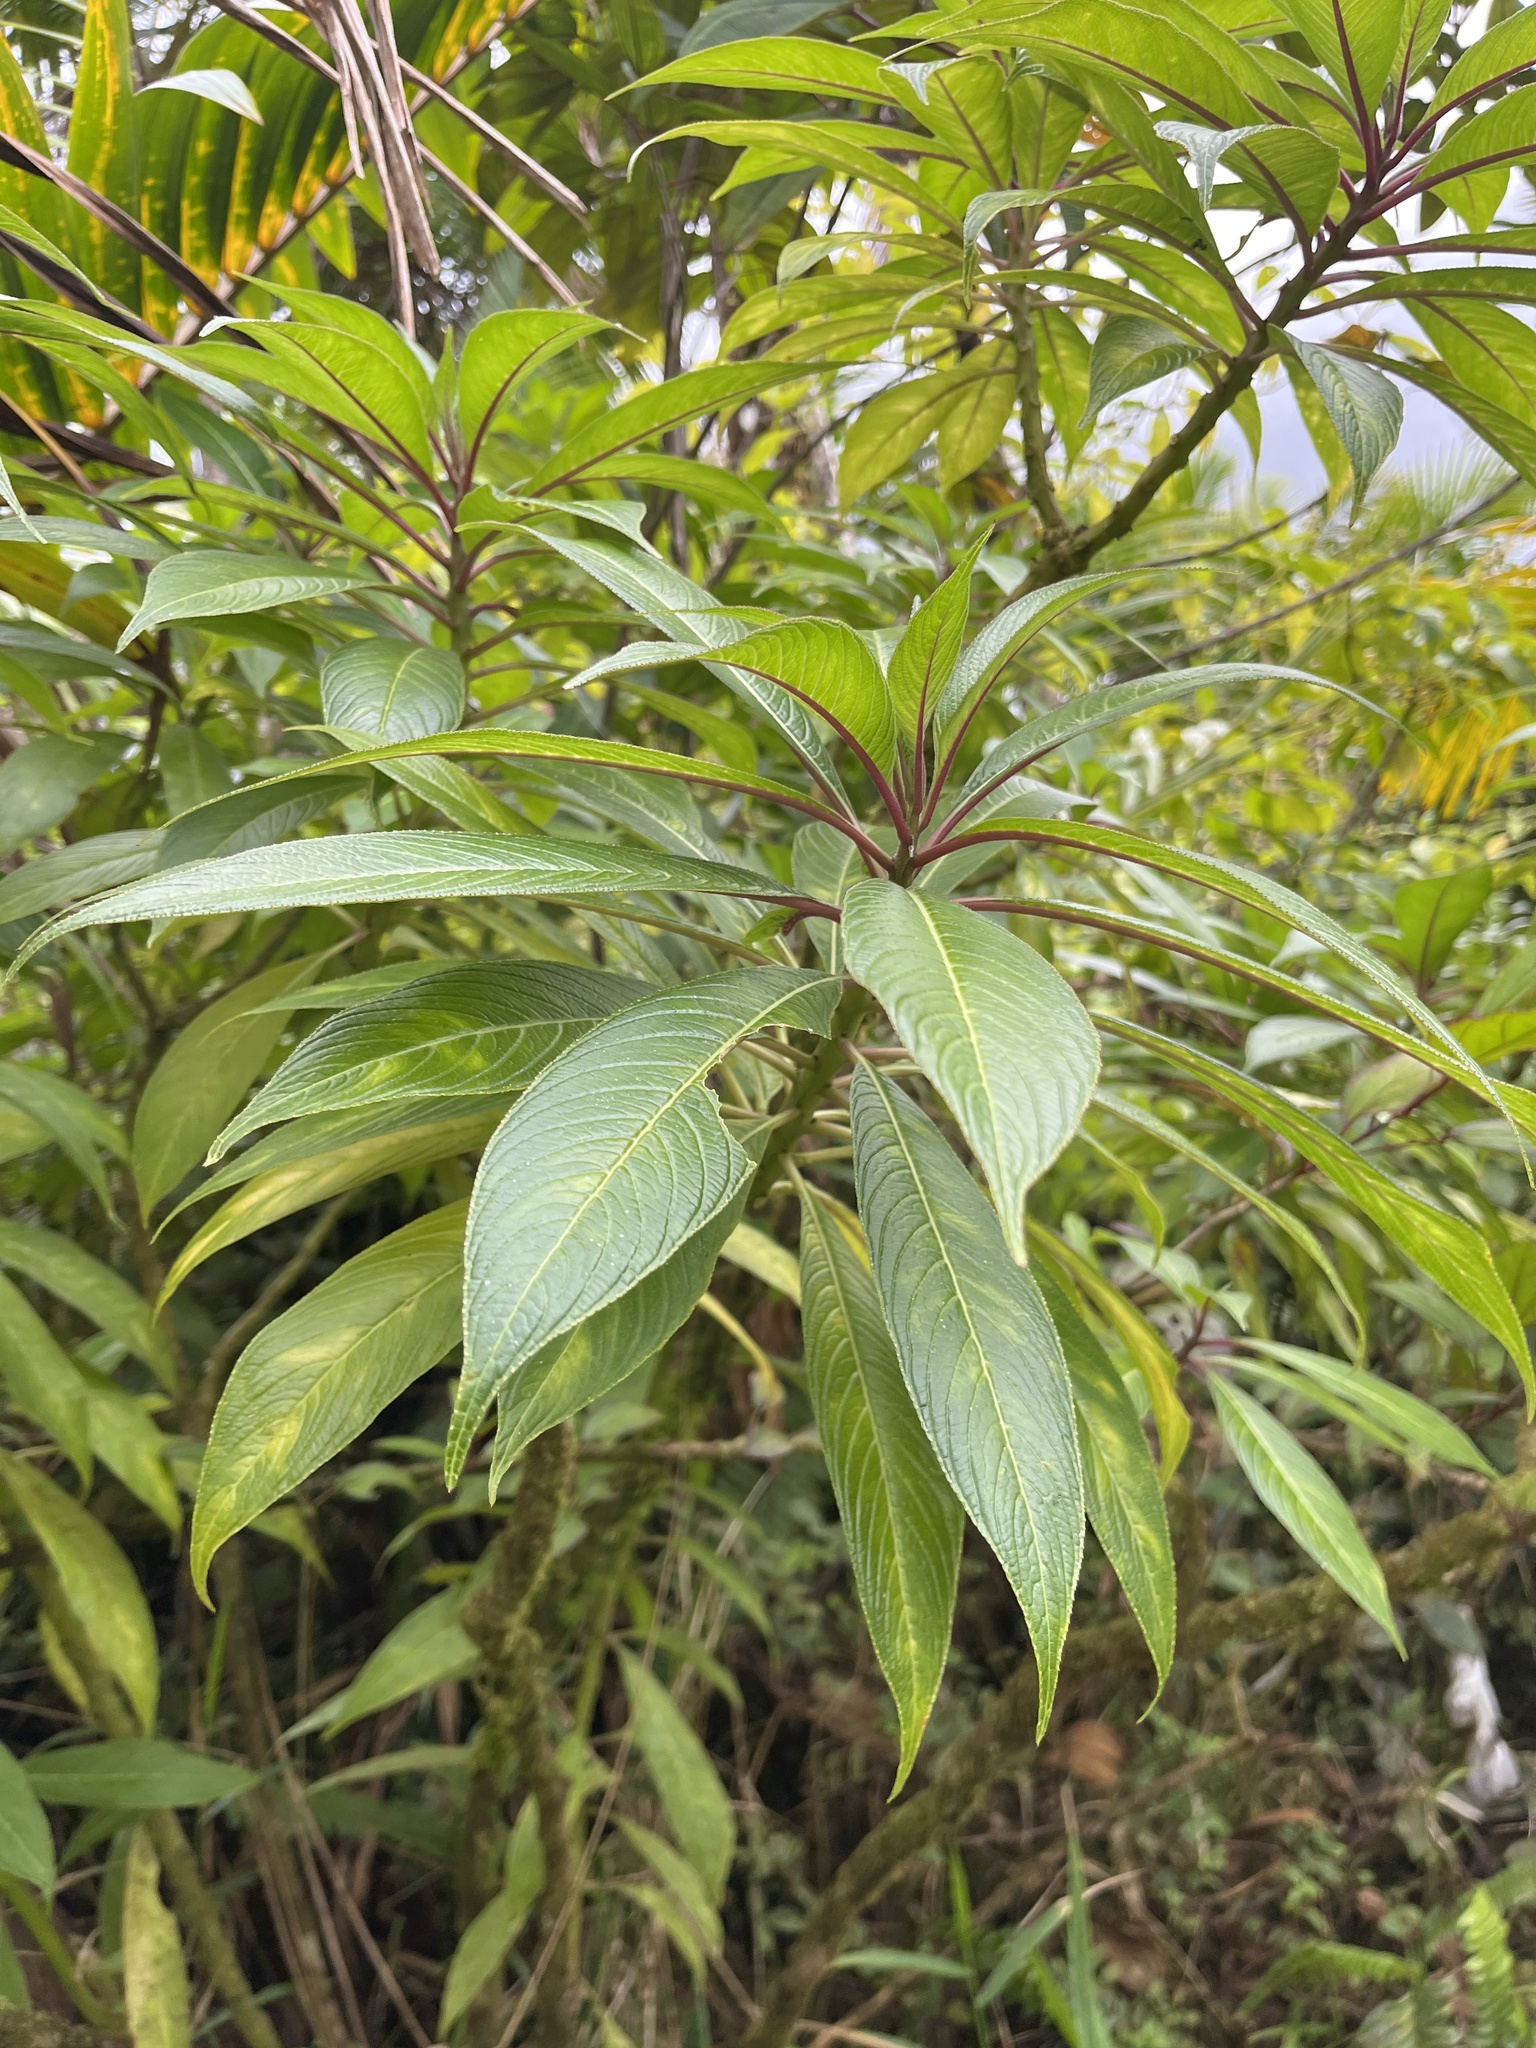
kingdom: Plantae
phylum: Tracheophyta
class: Magnoliopsida
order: Asterales
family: Campanulaceae
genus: Lobelia
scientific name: Lobelia portoricensis
